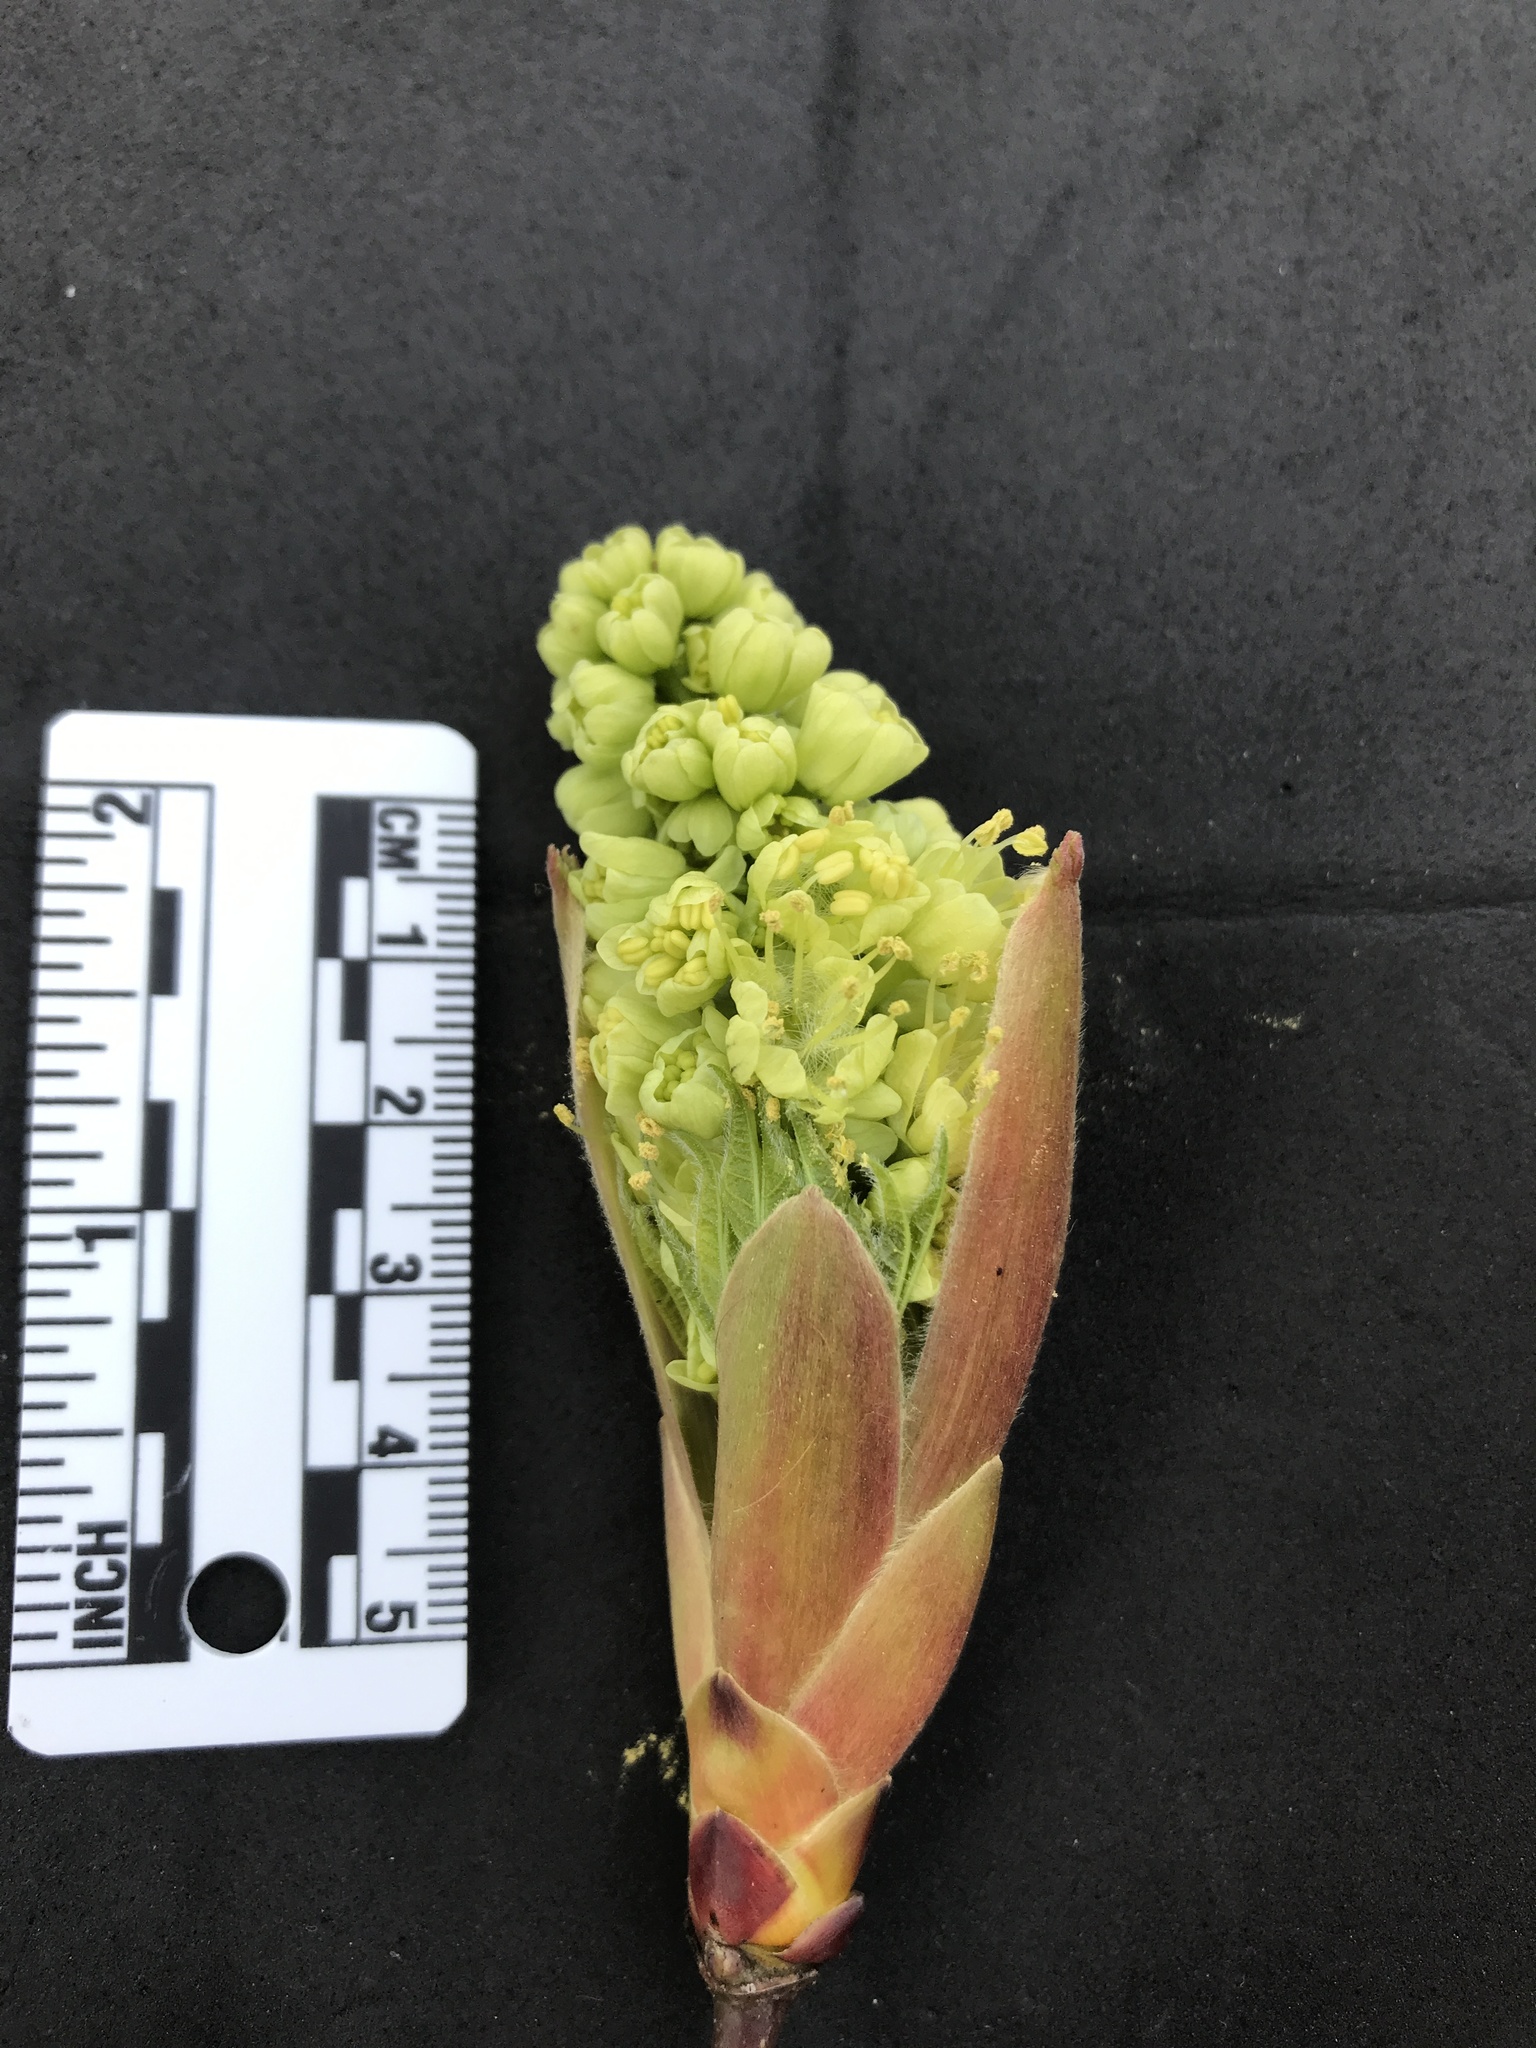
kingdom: Plantae
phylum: Tracheophyta
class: Magnoliopsida
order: Sapindales
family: Sapindaceae
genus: Acer
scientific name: Acer macrophyllum
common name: Oregon maple
